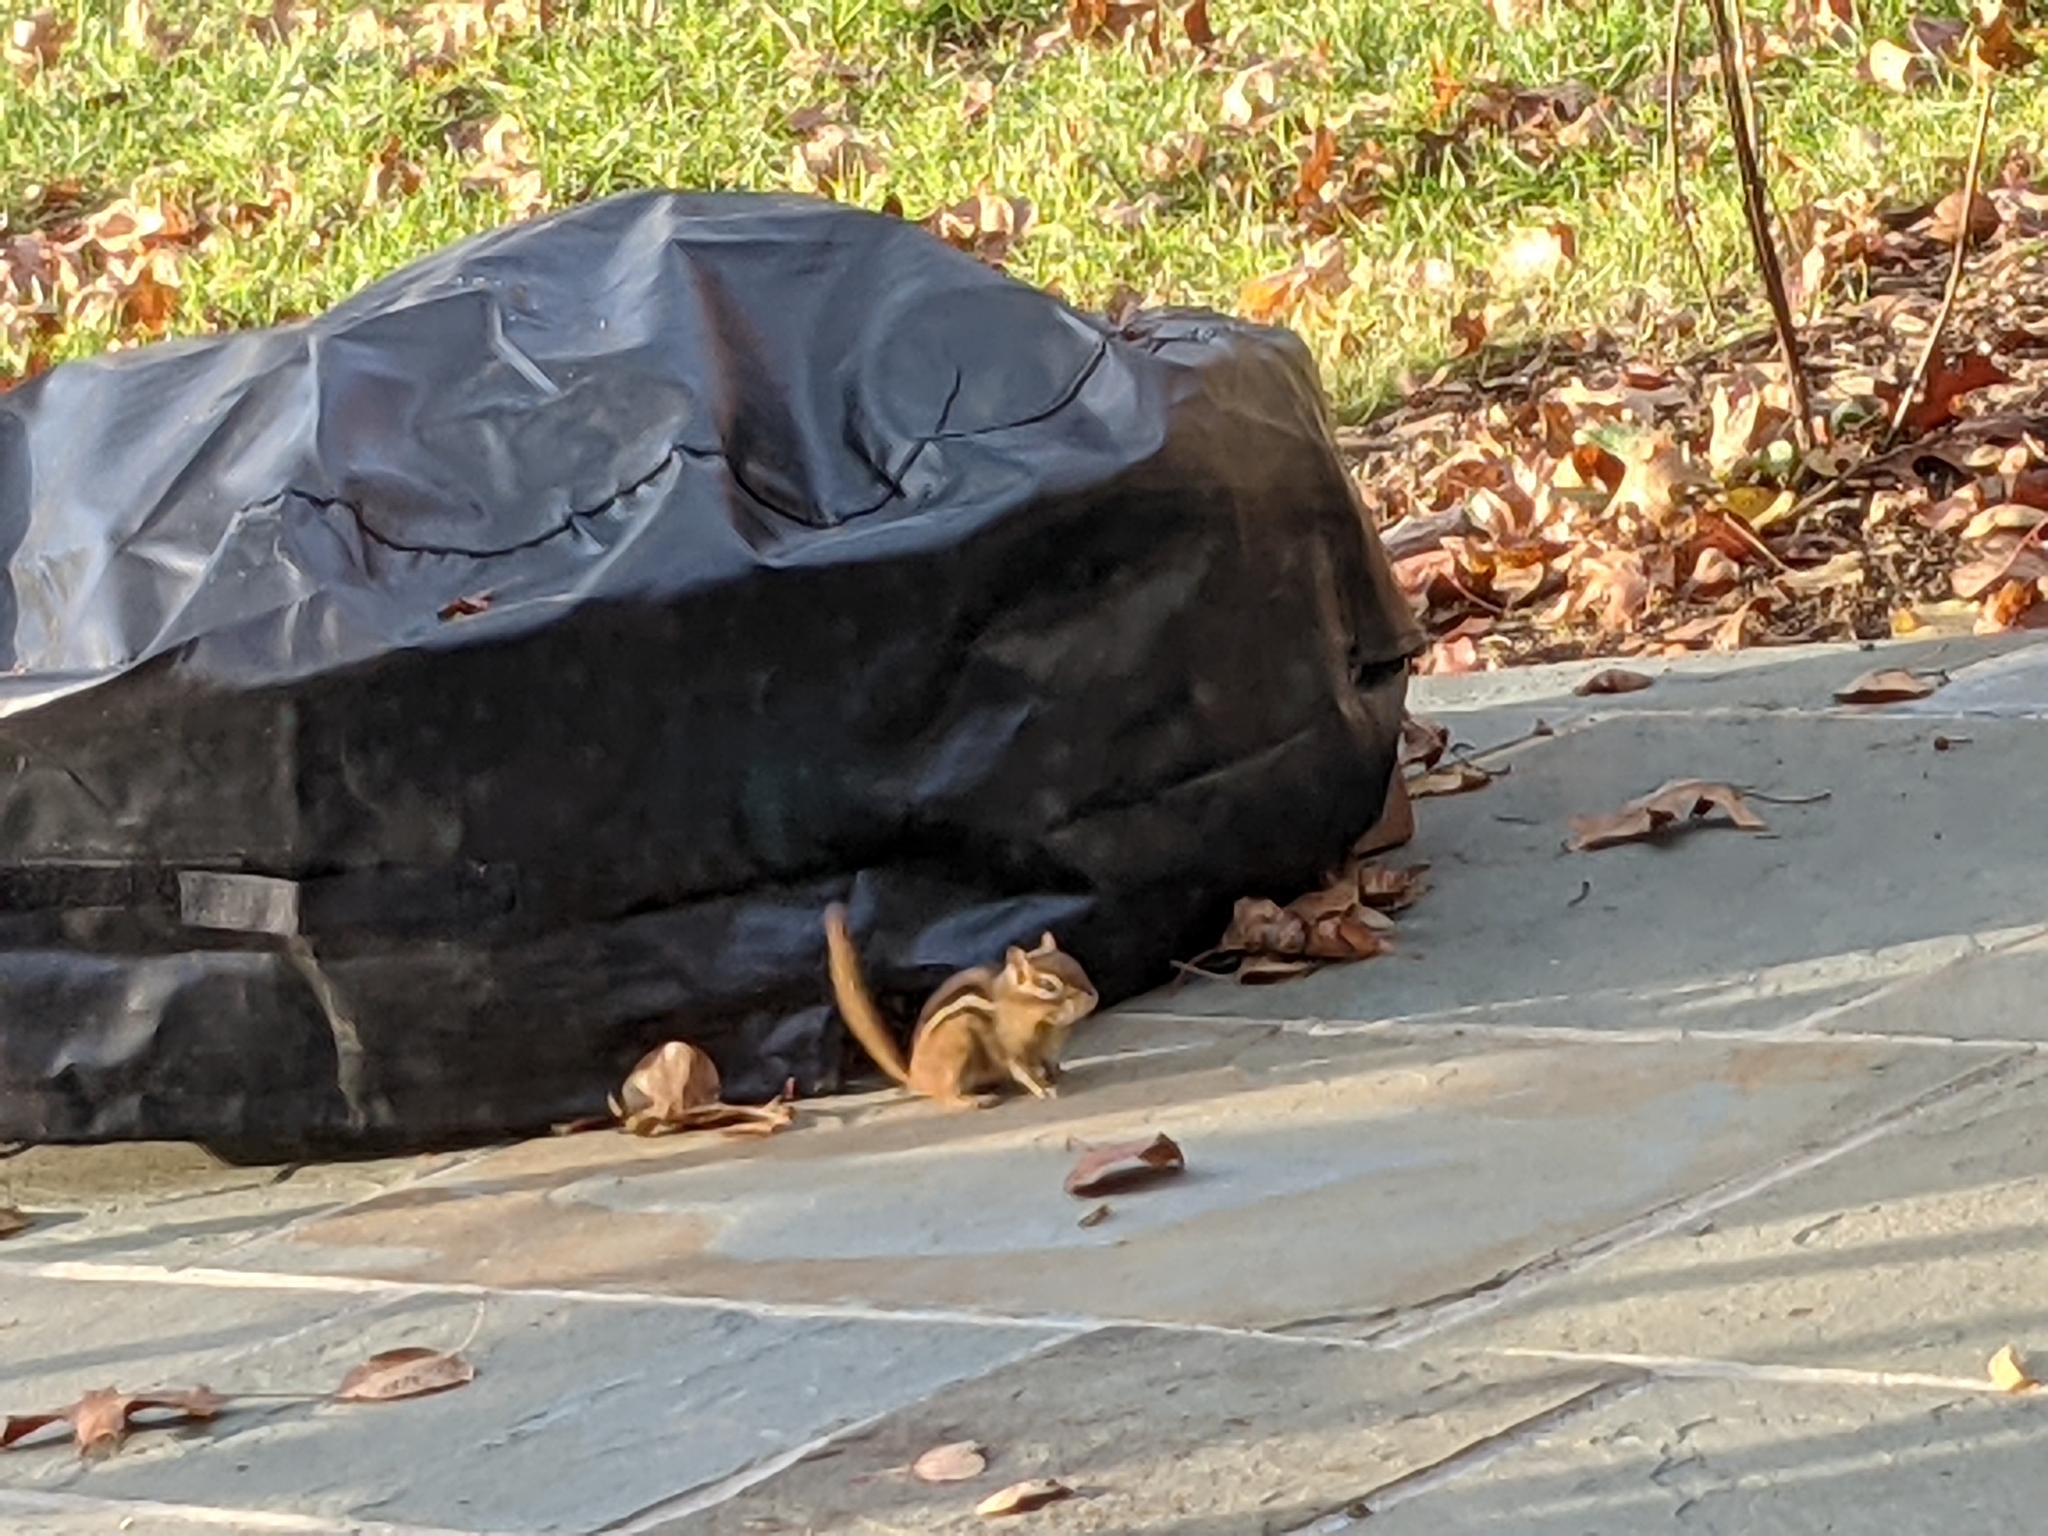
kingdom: Animalia
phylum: Chordata
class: Mammalia
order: Rodentia
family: Sciuridae
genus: Tamias
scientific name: Tamias striatus
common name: Eastern chipmunk
